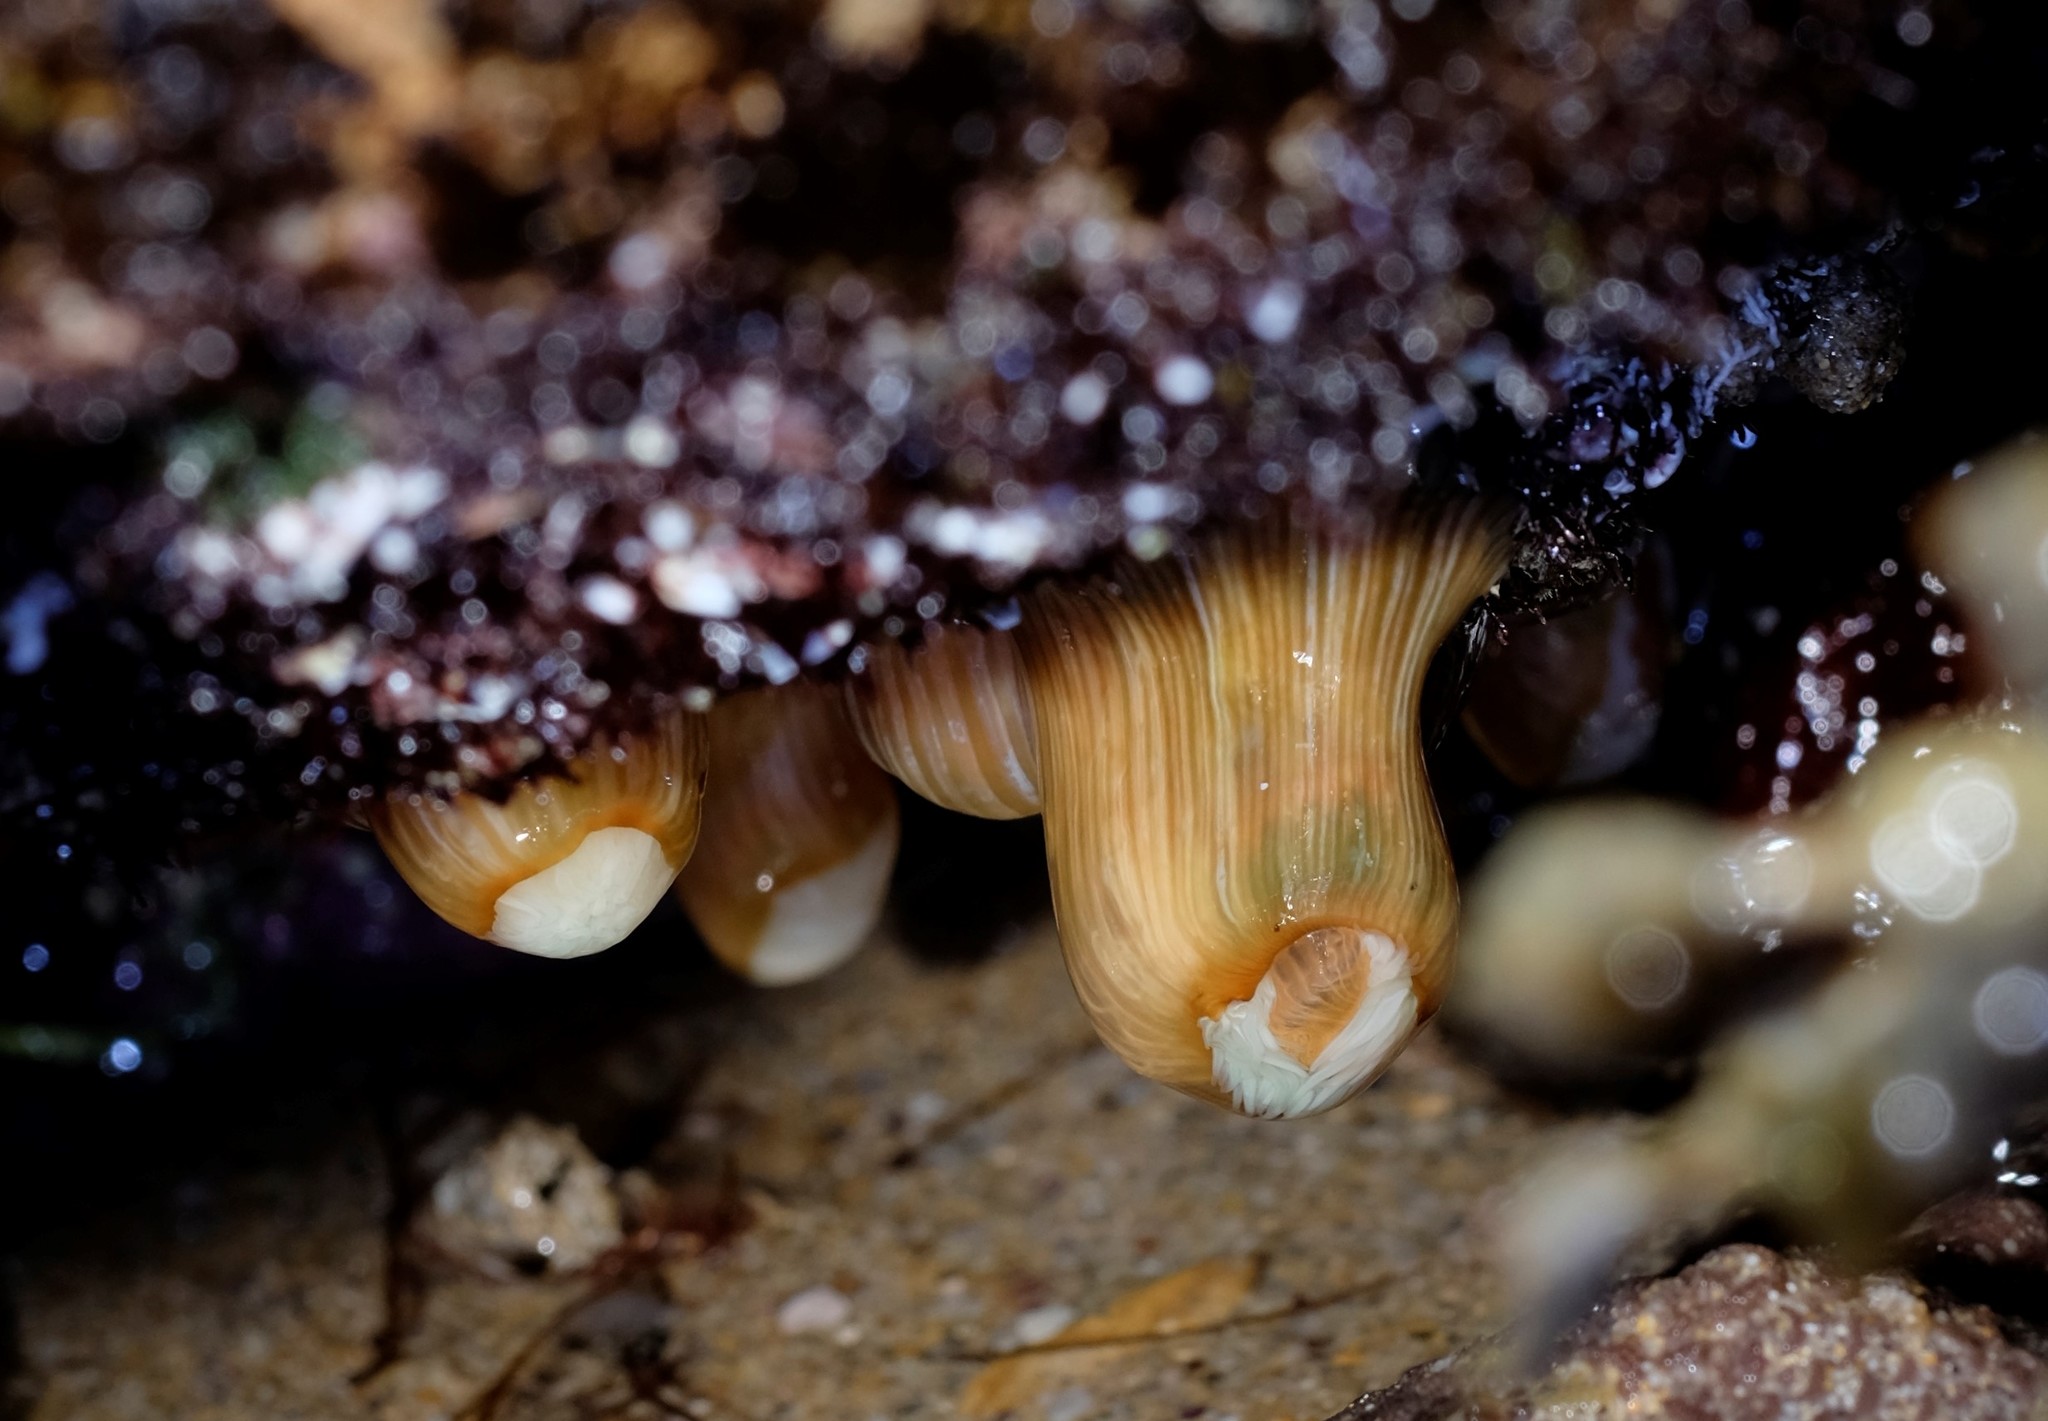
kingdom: Animalia
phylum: Cnidaria
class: Anthozoa
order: Actiniaria
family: Sagartiidae
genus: Anthothoe
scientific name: Anthothoe albocincta
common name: Orange striped anemone
